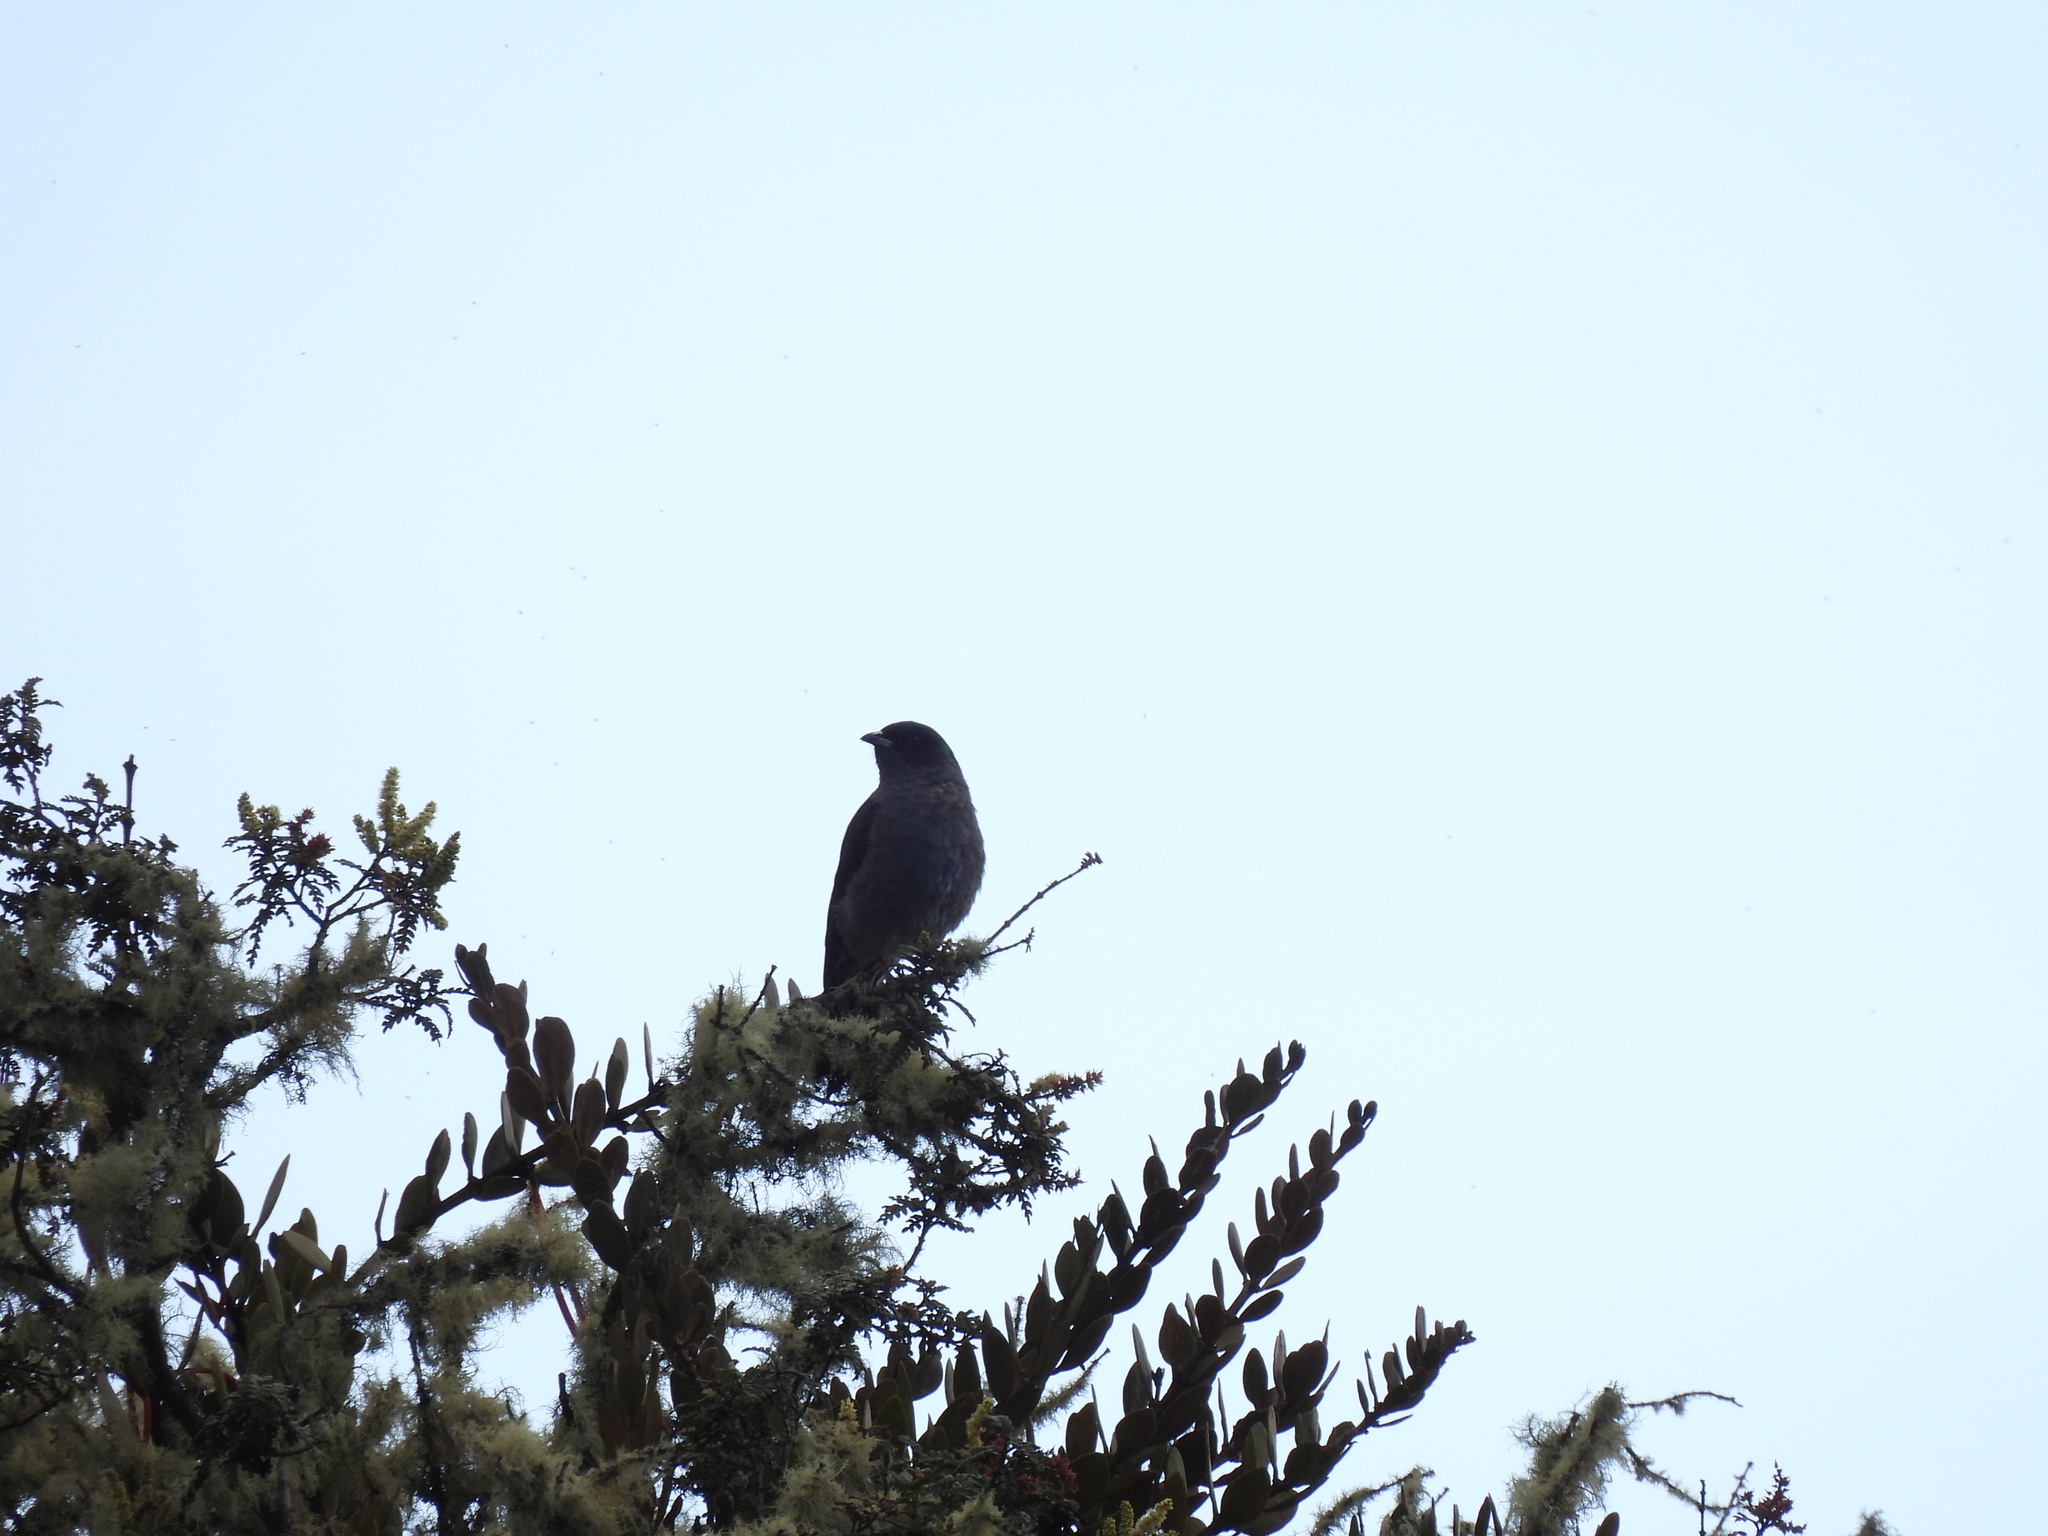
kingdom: Animalia
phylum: Chordata
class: Aves
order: Passeriformes
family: Cotingidae
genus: Ampelion
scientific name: Ampelion rubrocristatus
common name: Red-crested cotinga
